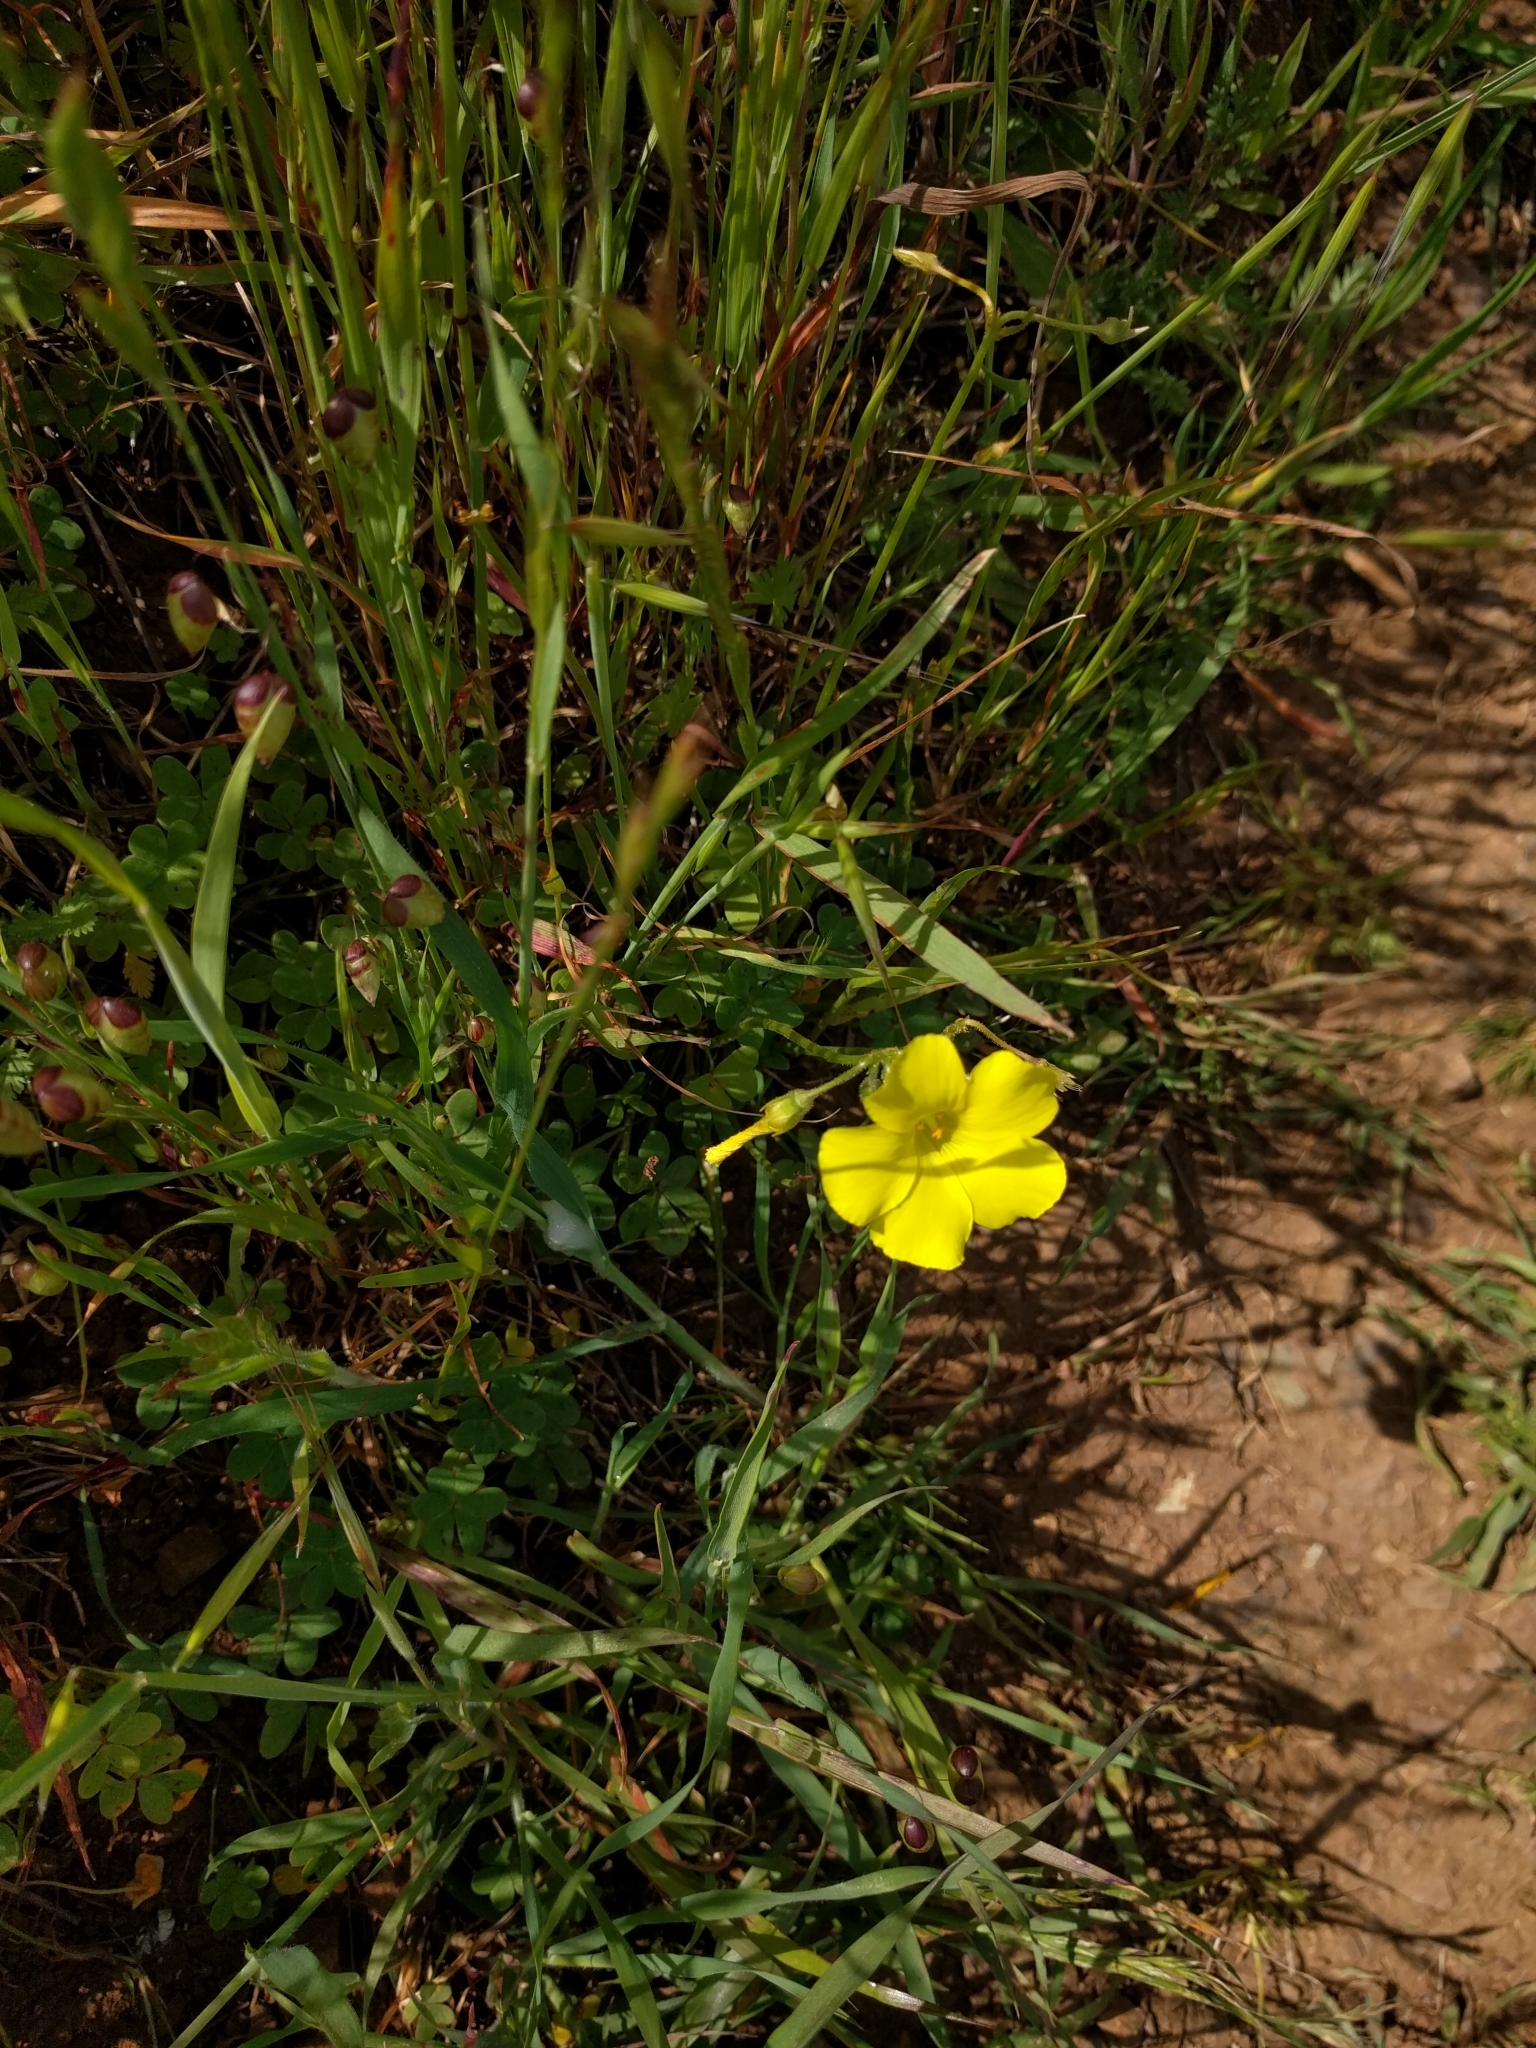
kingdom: Plantae
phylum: Tracheophyta
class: Magnoliopsida
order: Oxalidales
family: Oxalidaceae
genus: Oxalis
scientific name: Oxalis pes-caprae
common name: Bermuda-buttercup
